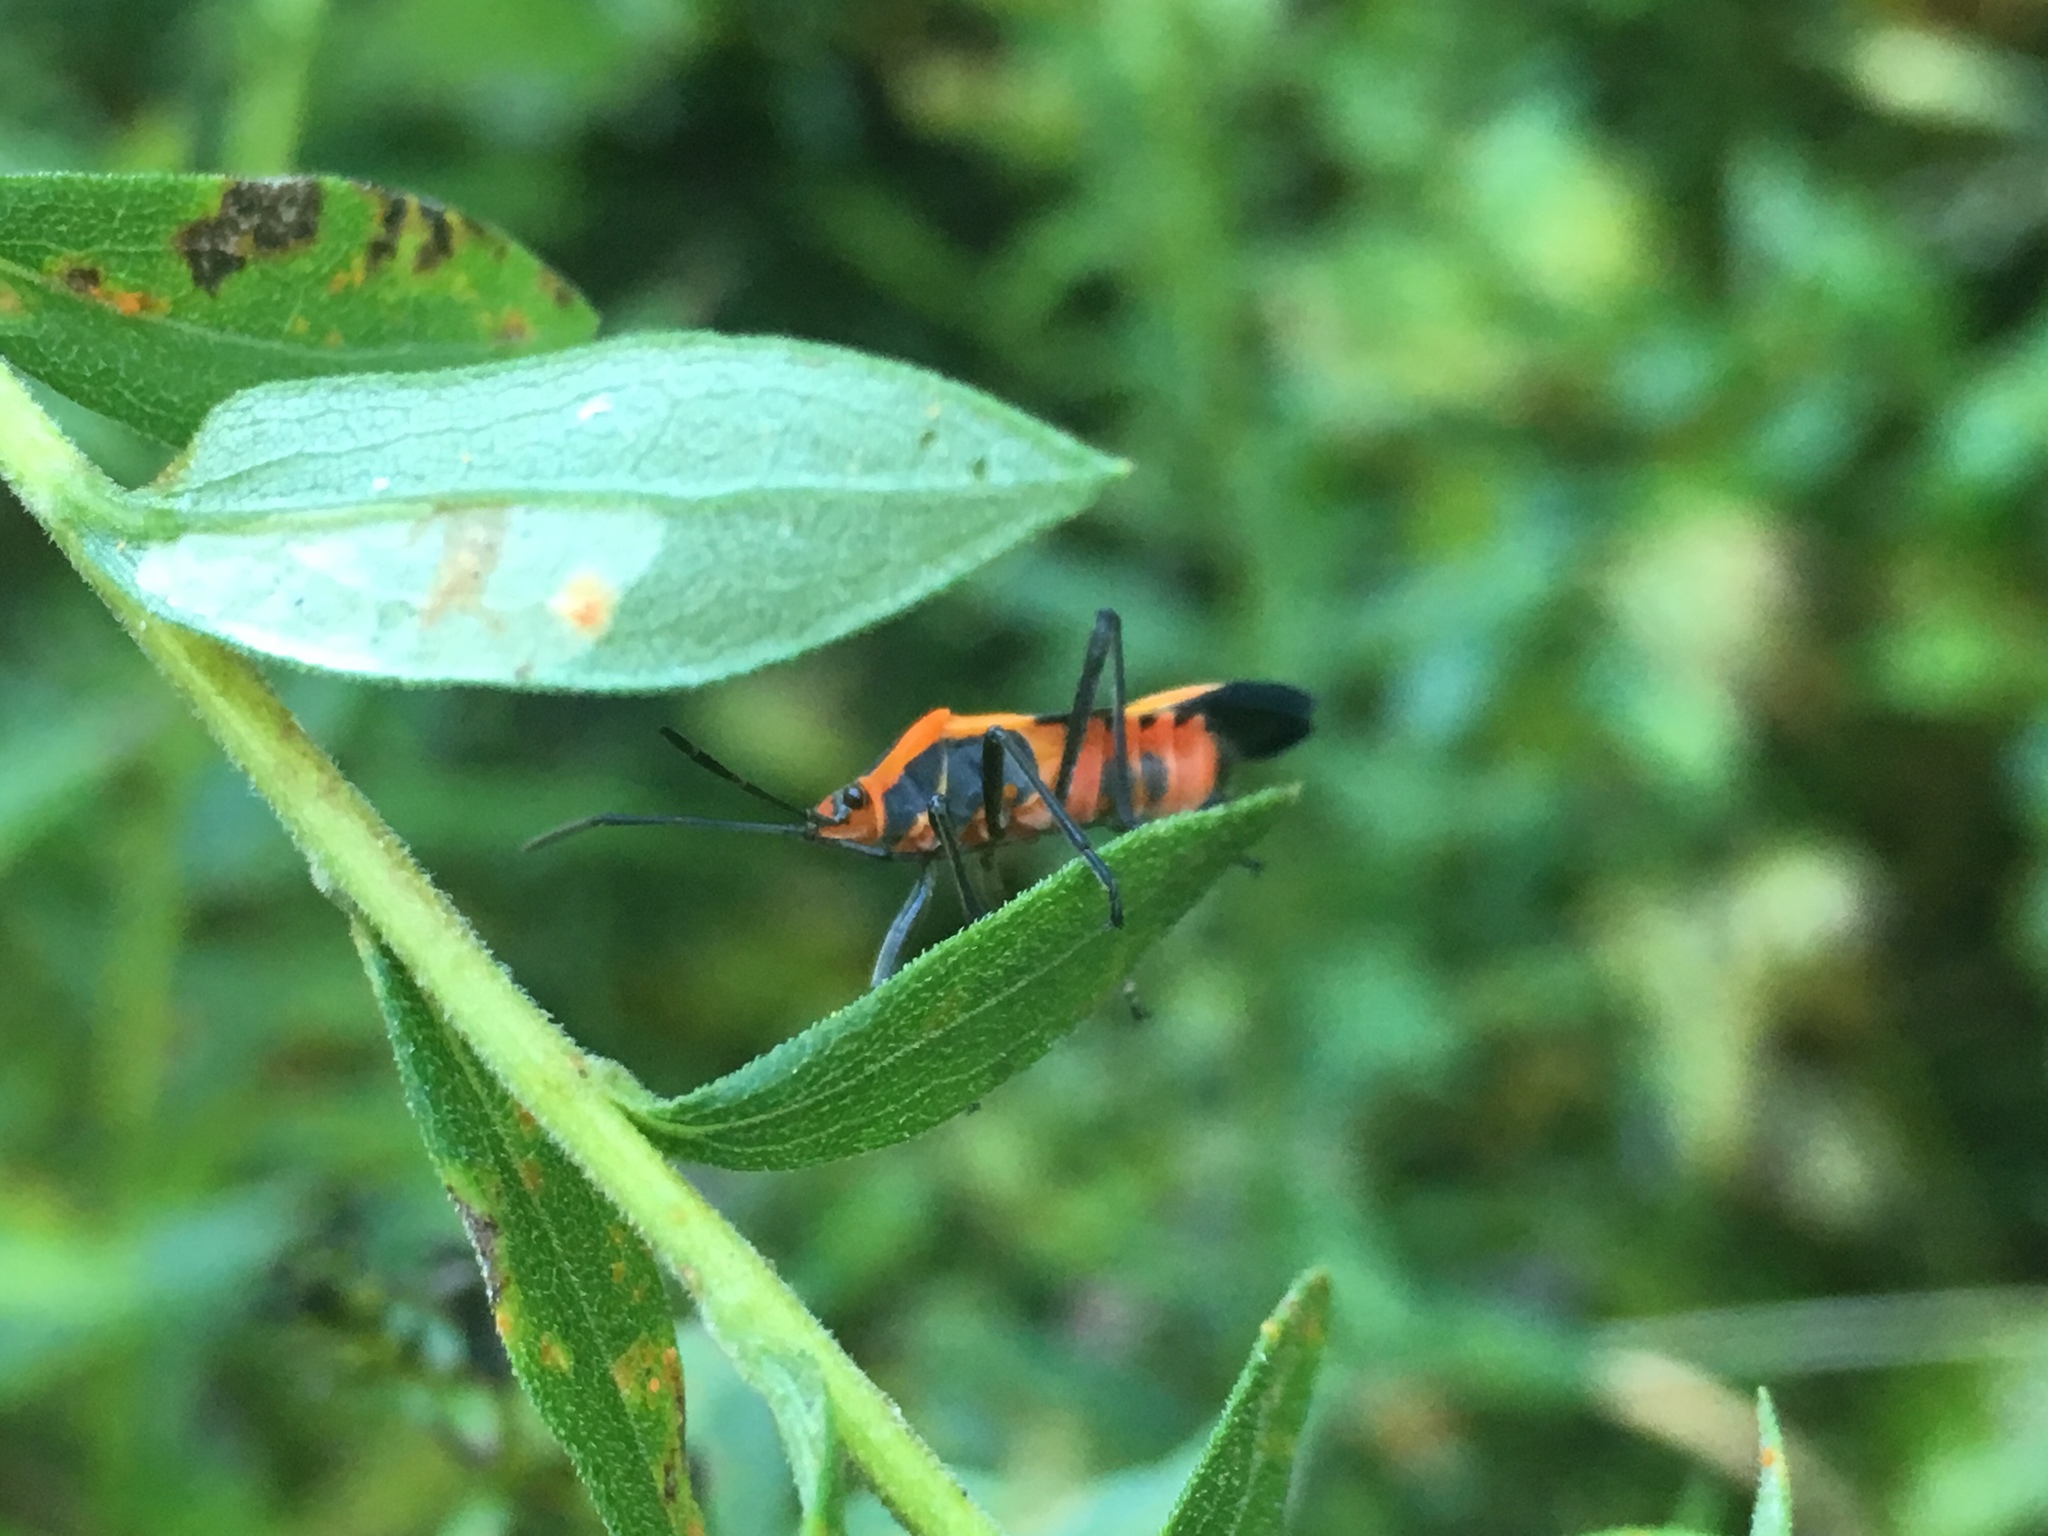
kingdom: Animalia
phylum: Arthropoda
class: Insecta
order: Hemiptera
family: Lygaeidae
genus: Oncopeltus
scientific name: Oncopeltus fasciatus
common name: Large milkweed bug
